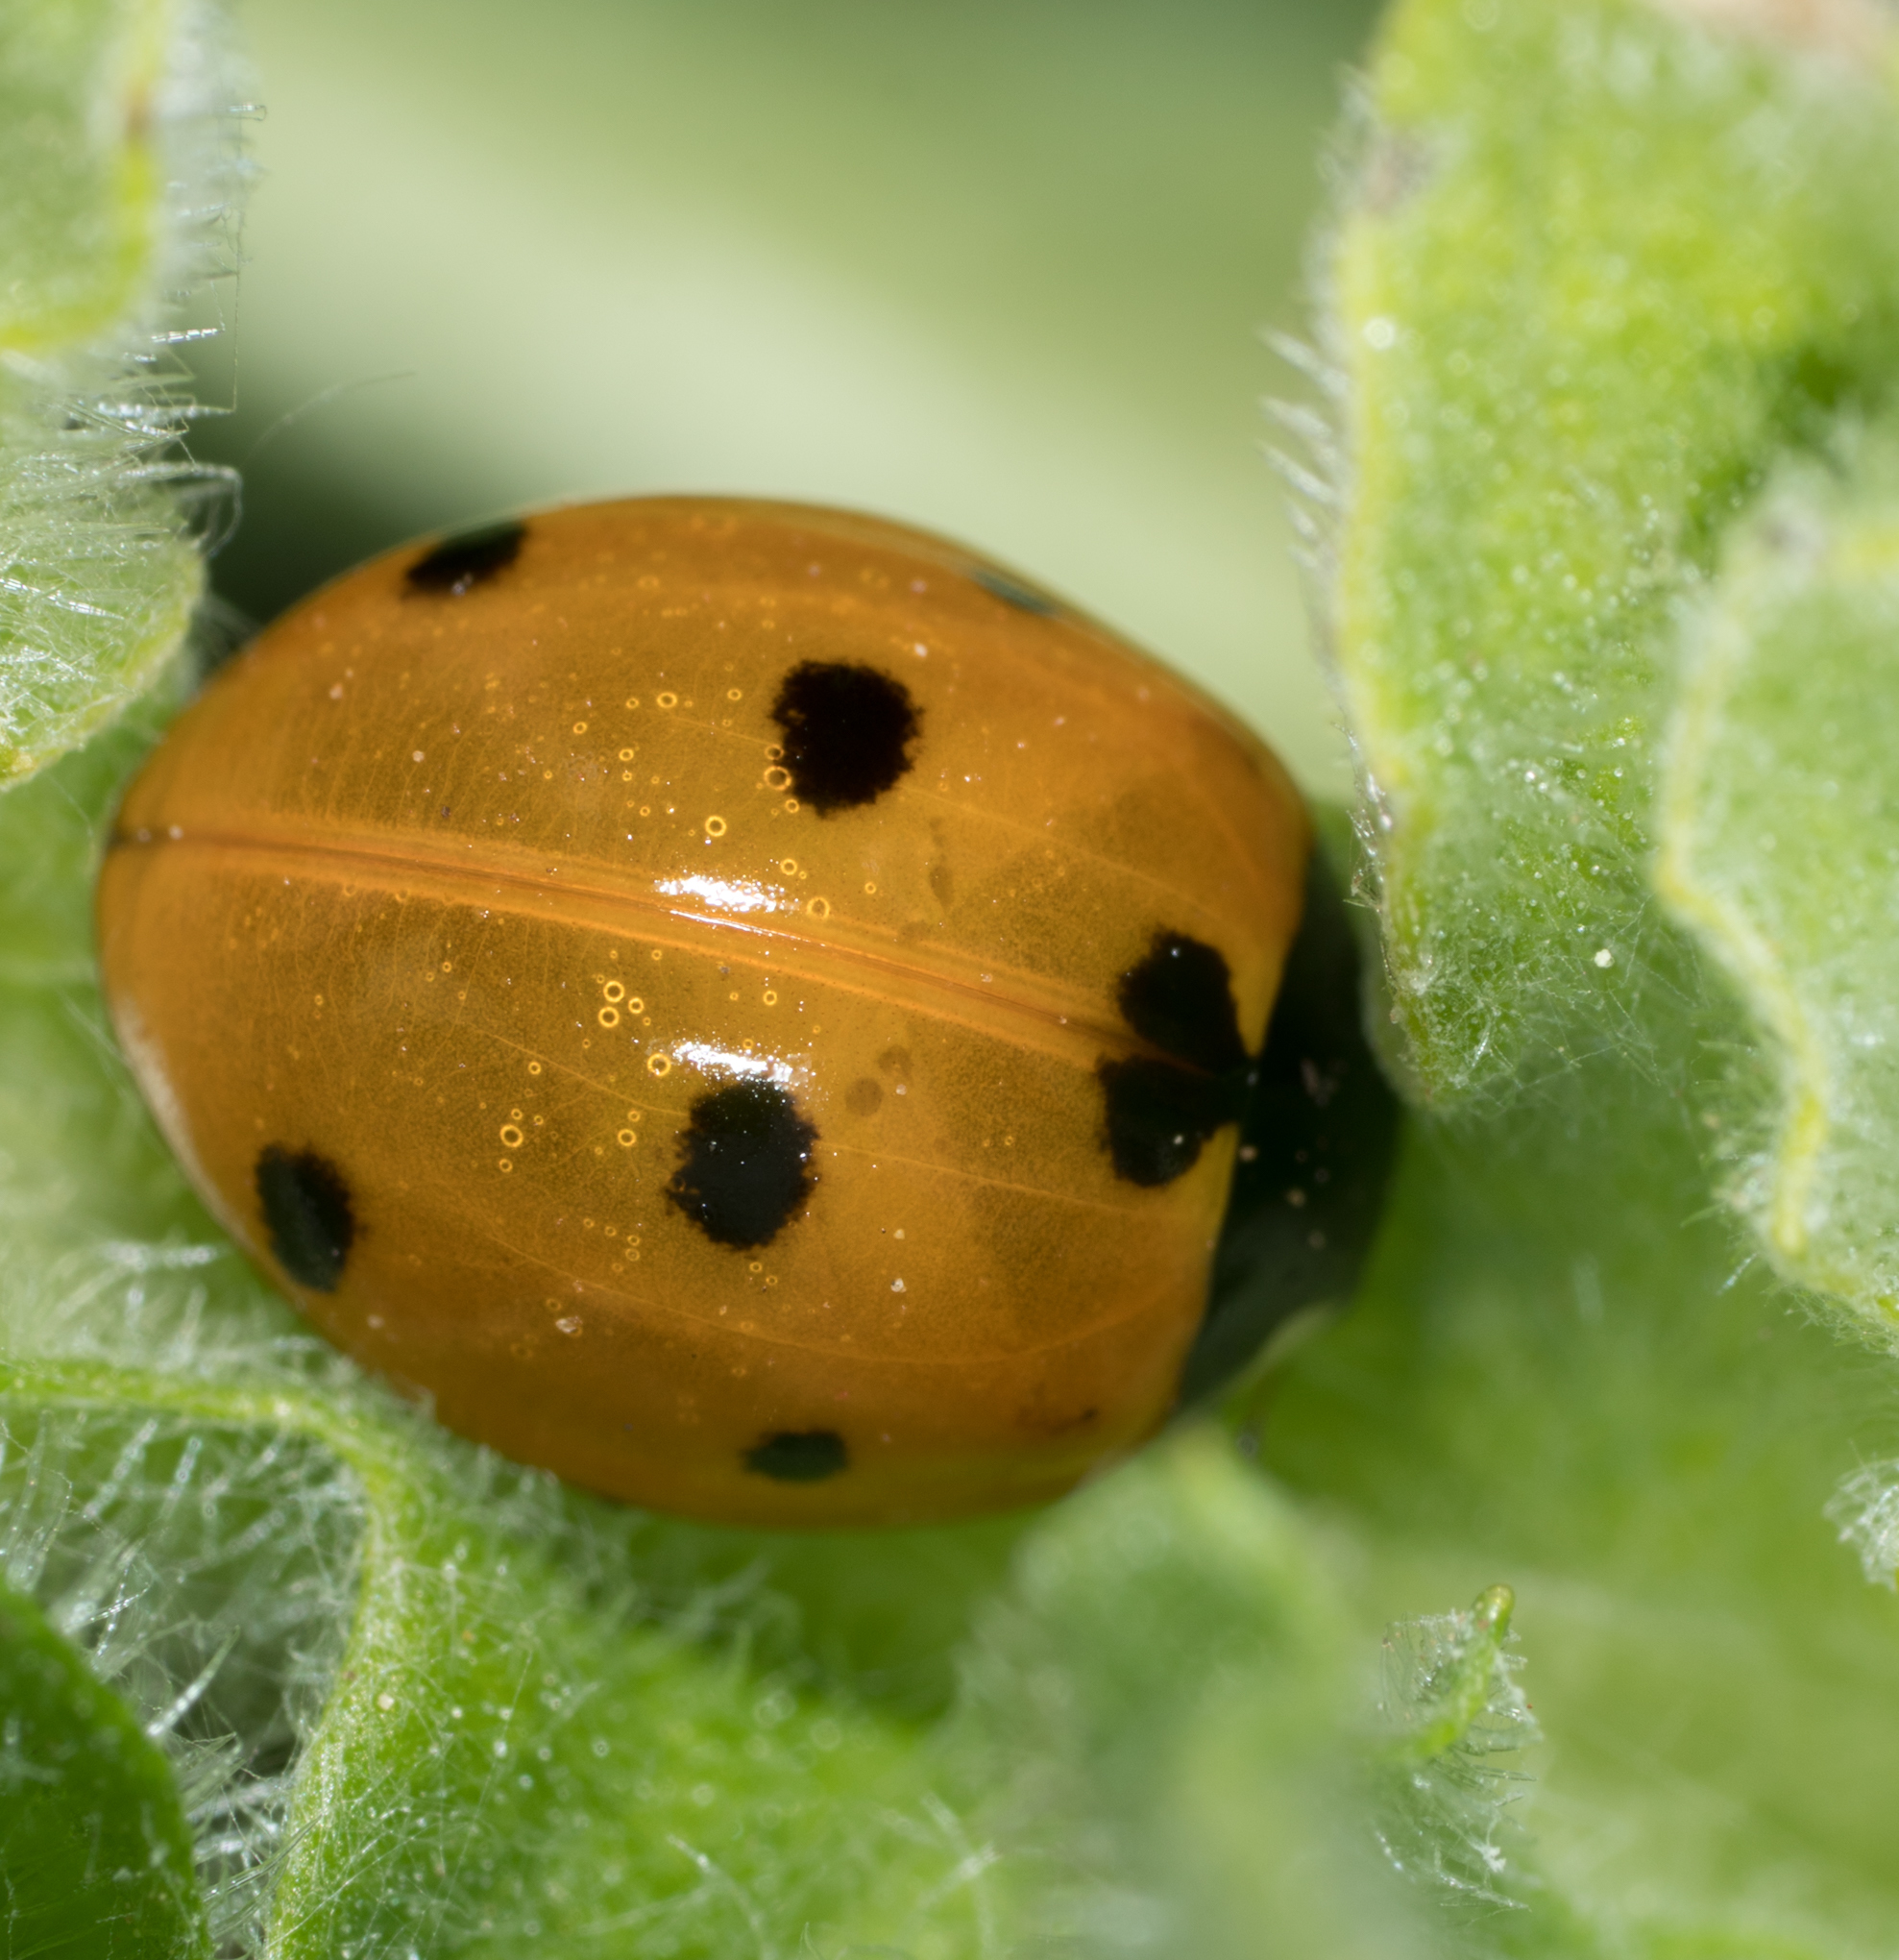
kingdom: Animalia
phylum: Arthropoda
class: Insecta
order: Coleoptera
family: Coccinellidae
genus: Coccinella
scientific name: Coccinella septempunctata
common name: Sevenspotted lady beetle
